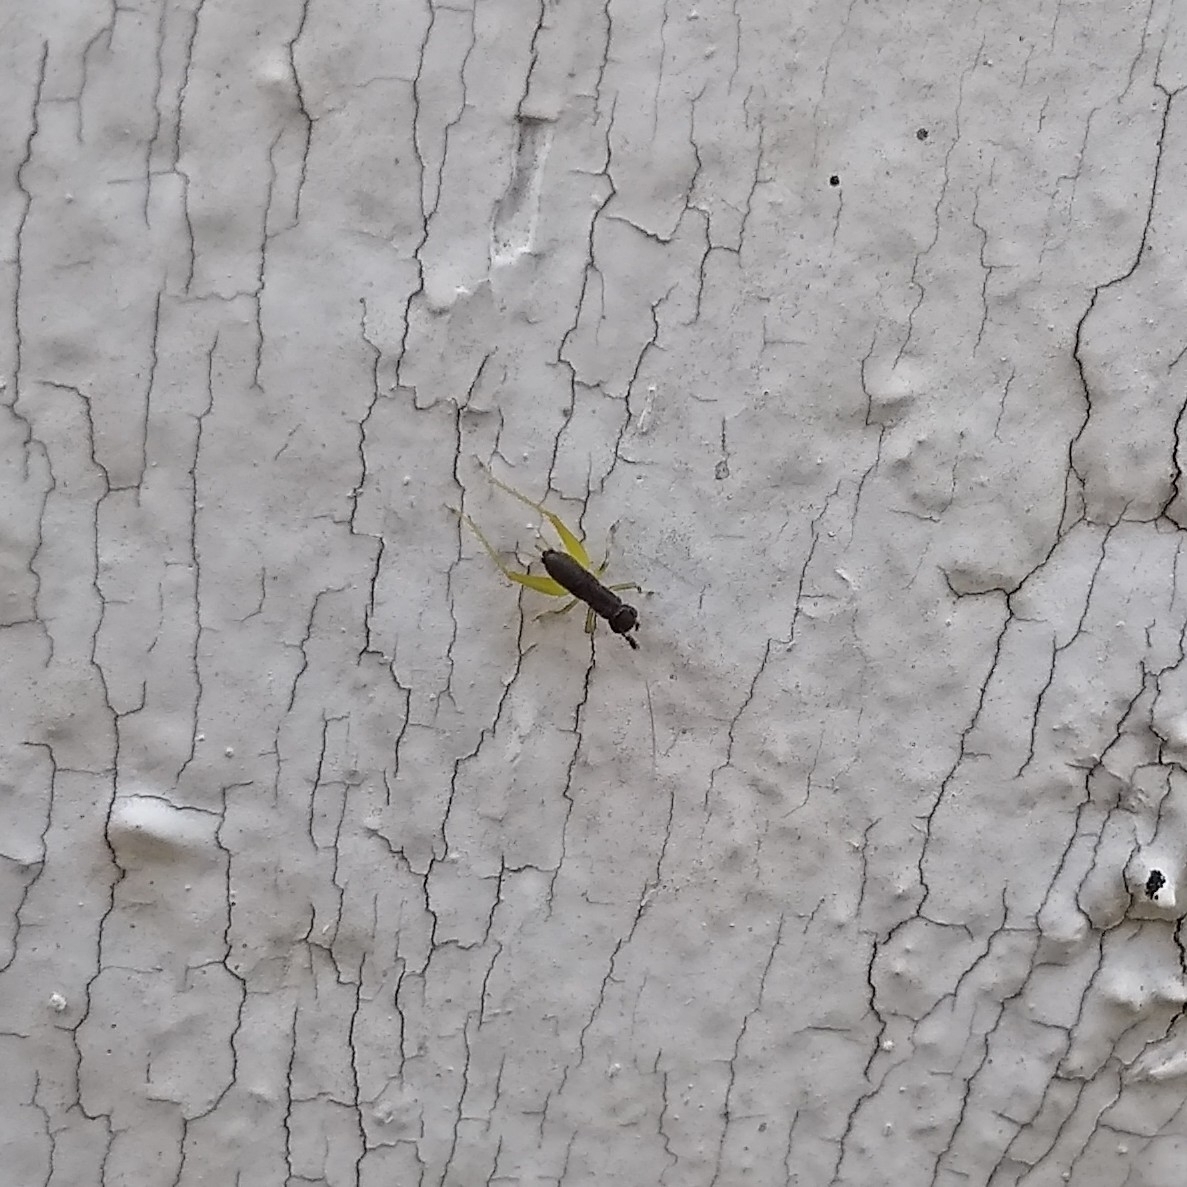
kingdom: Animalia
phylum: Arthropoda
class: Insecta
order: Orthoptera
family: Trigonidiidae
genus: Phyllopalpus
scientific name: Phyllopalpus pulchellus
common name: Handsome trig
